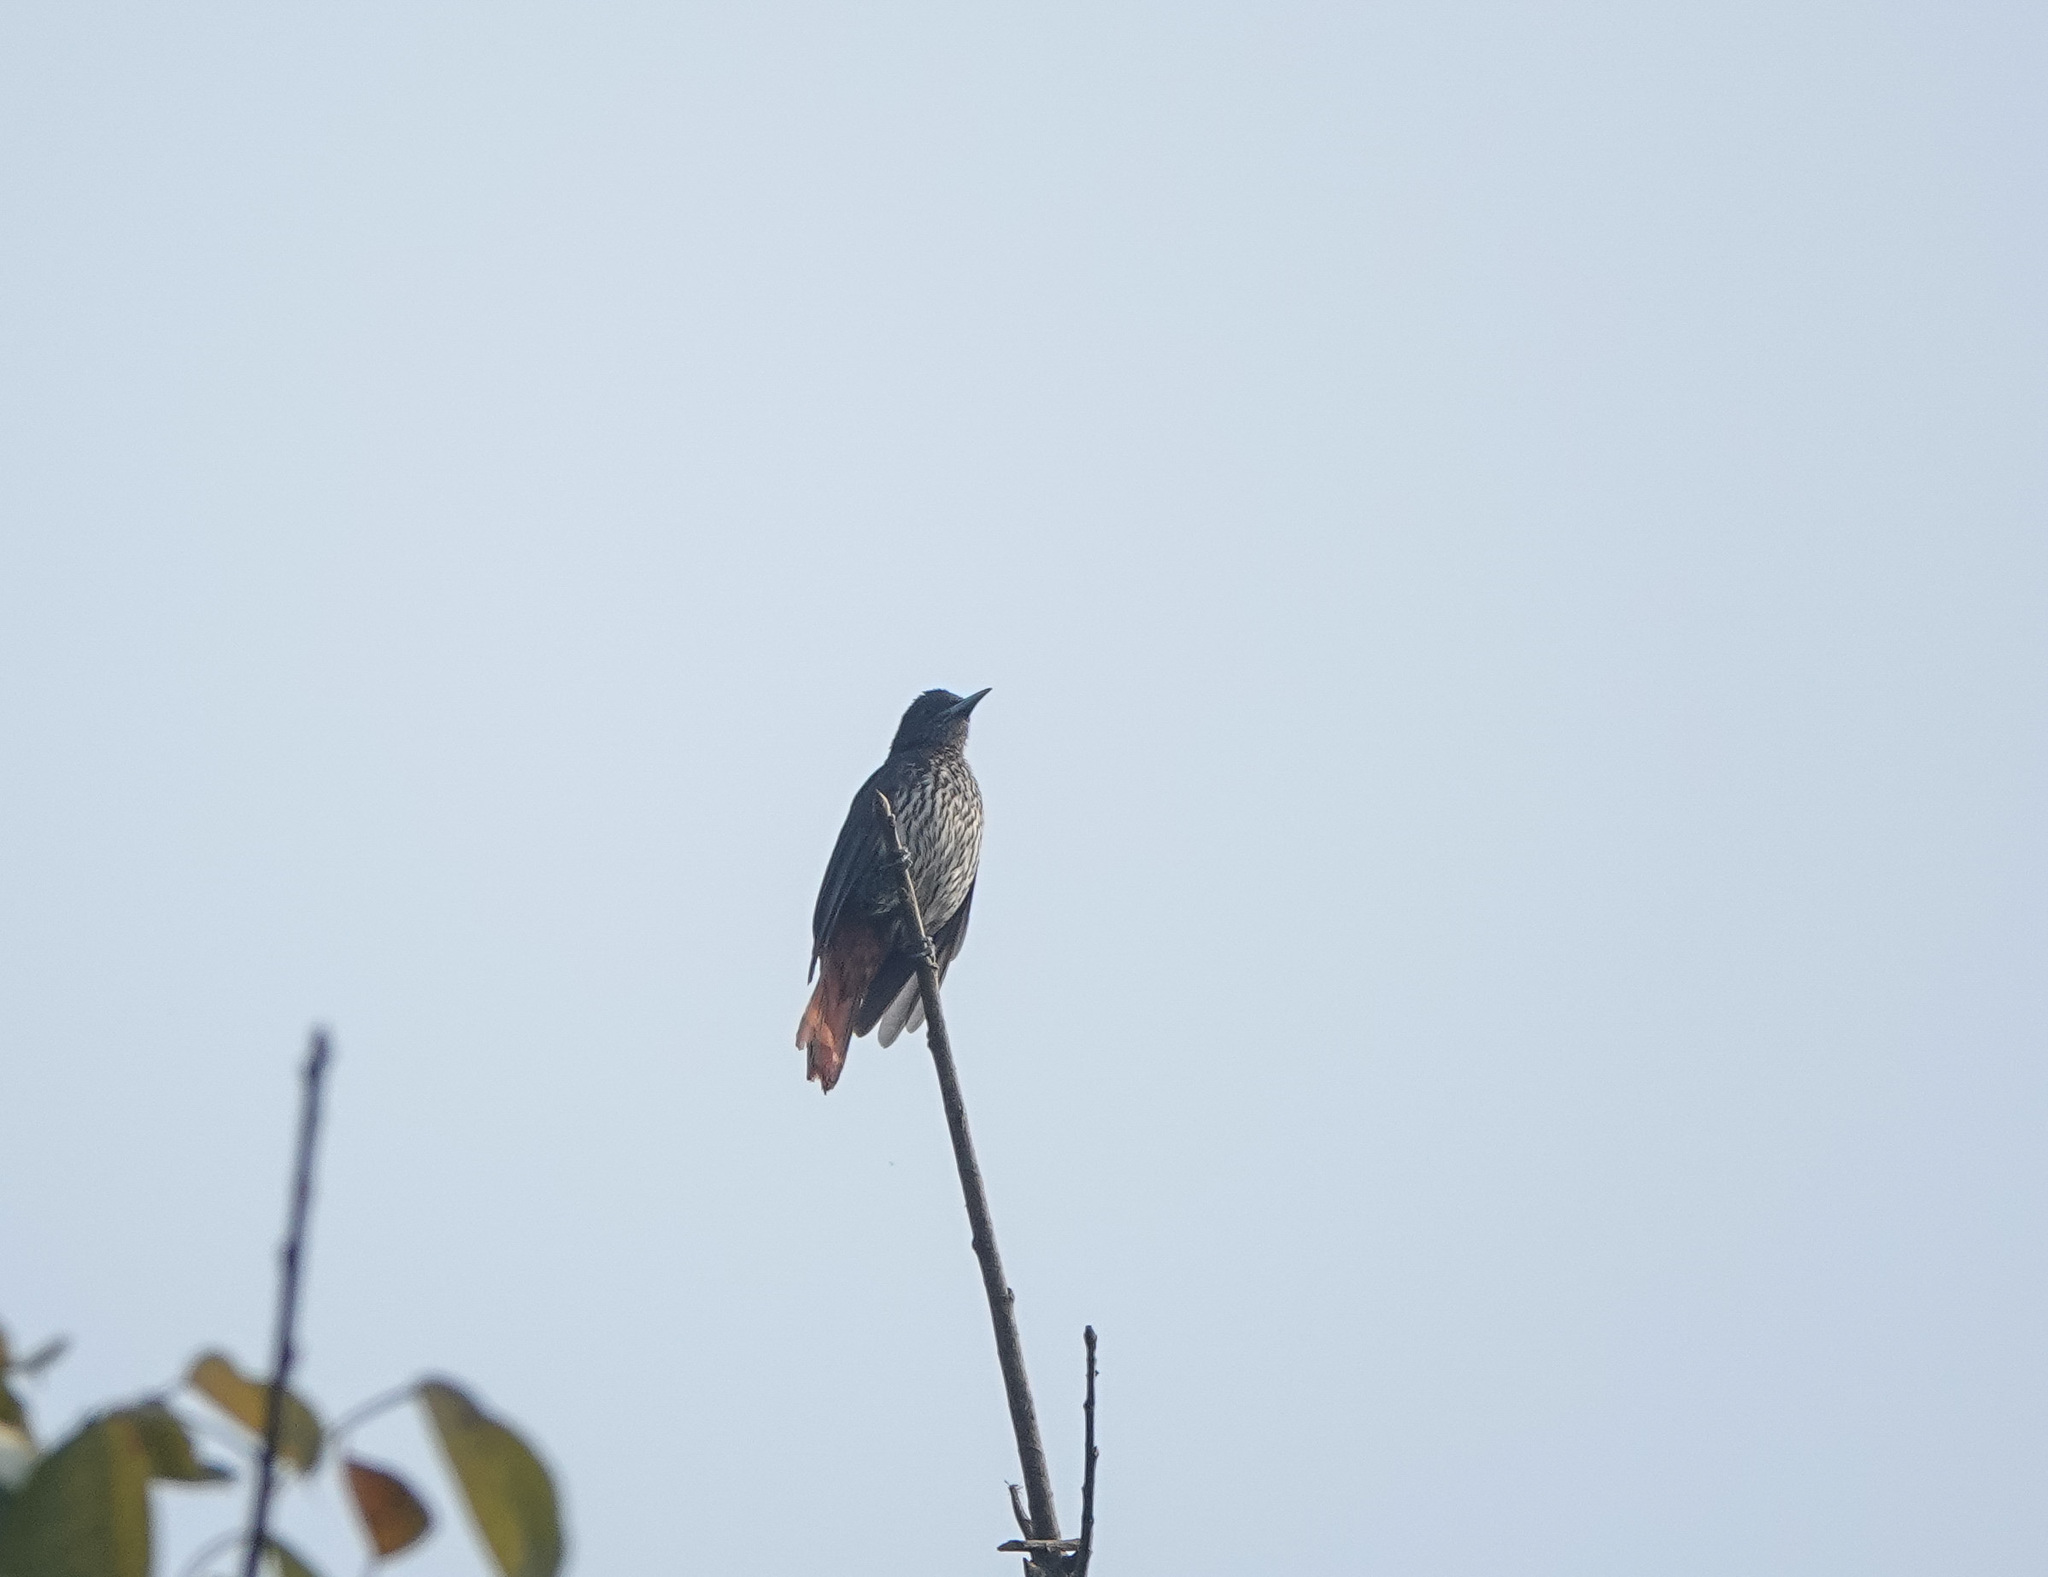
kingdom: Animalia
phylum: Chordata
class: Aves
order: Passeriformes
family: Oriolidae
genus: Oriolus
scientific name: Oriolus traillii
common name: Maroon oriole
